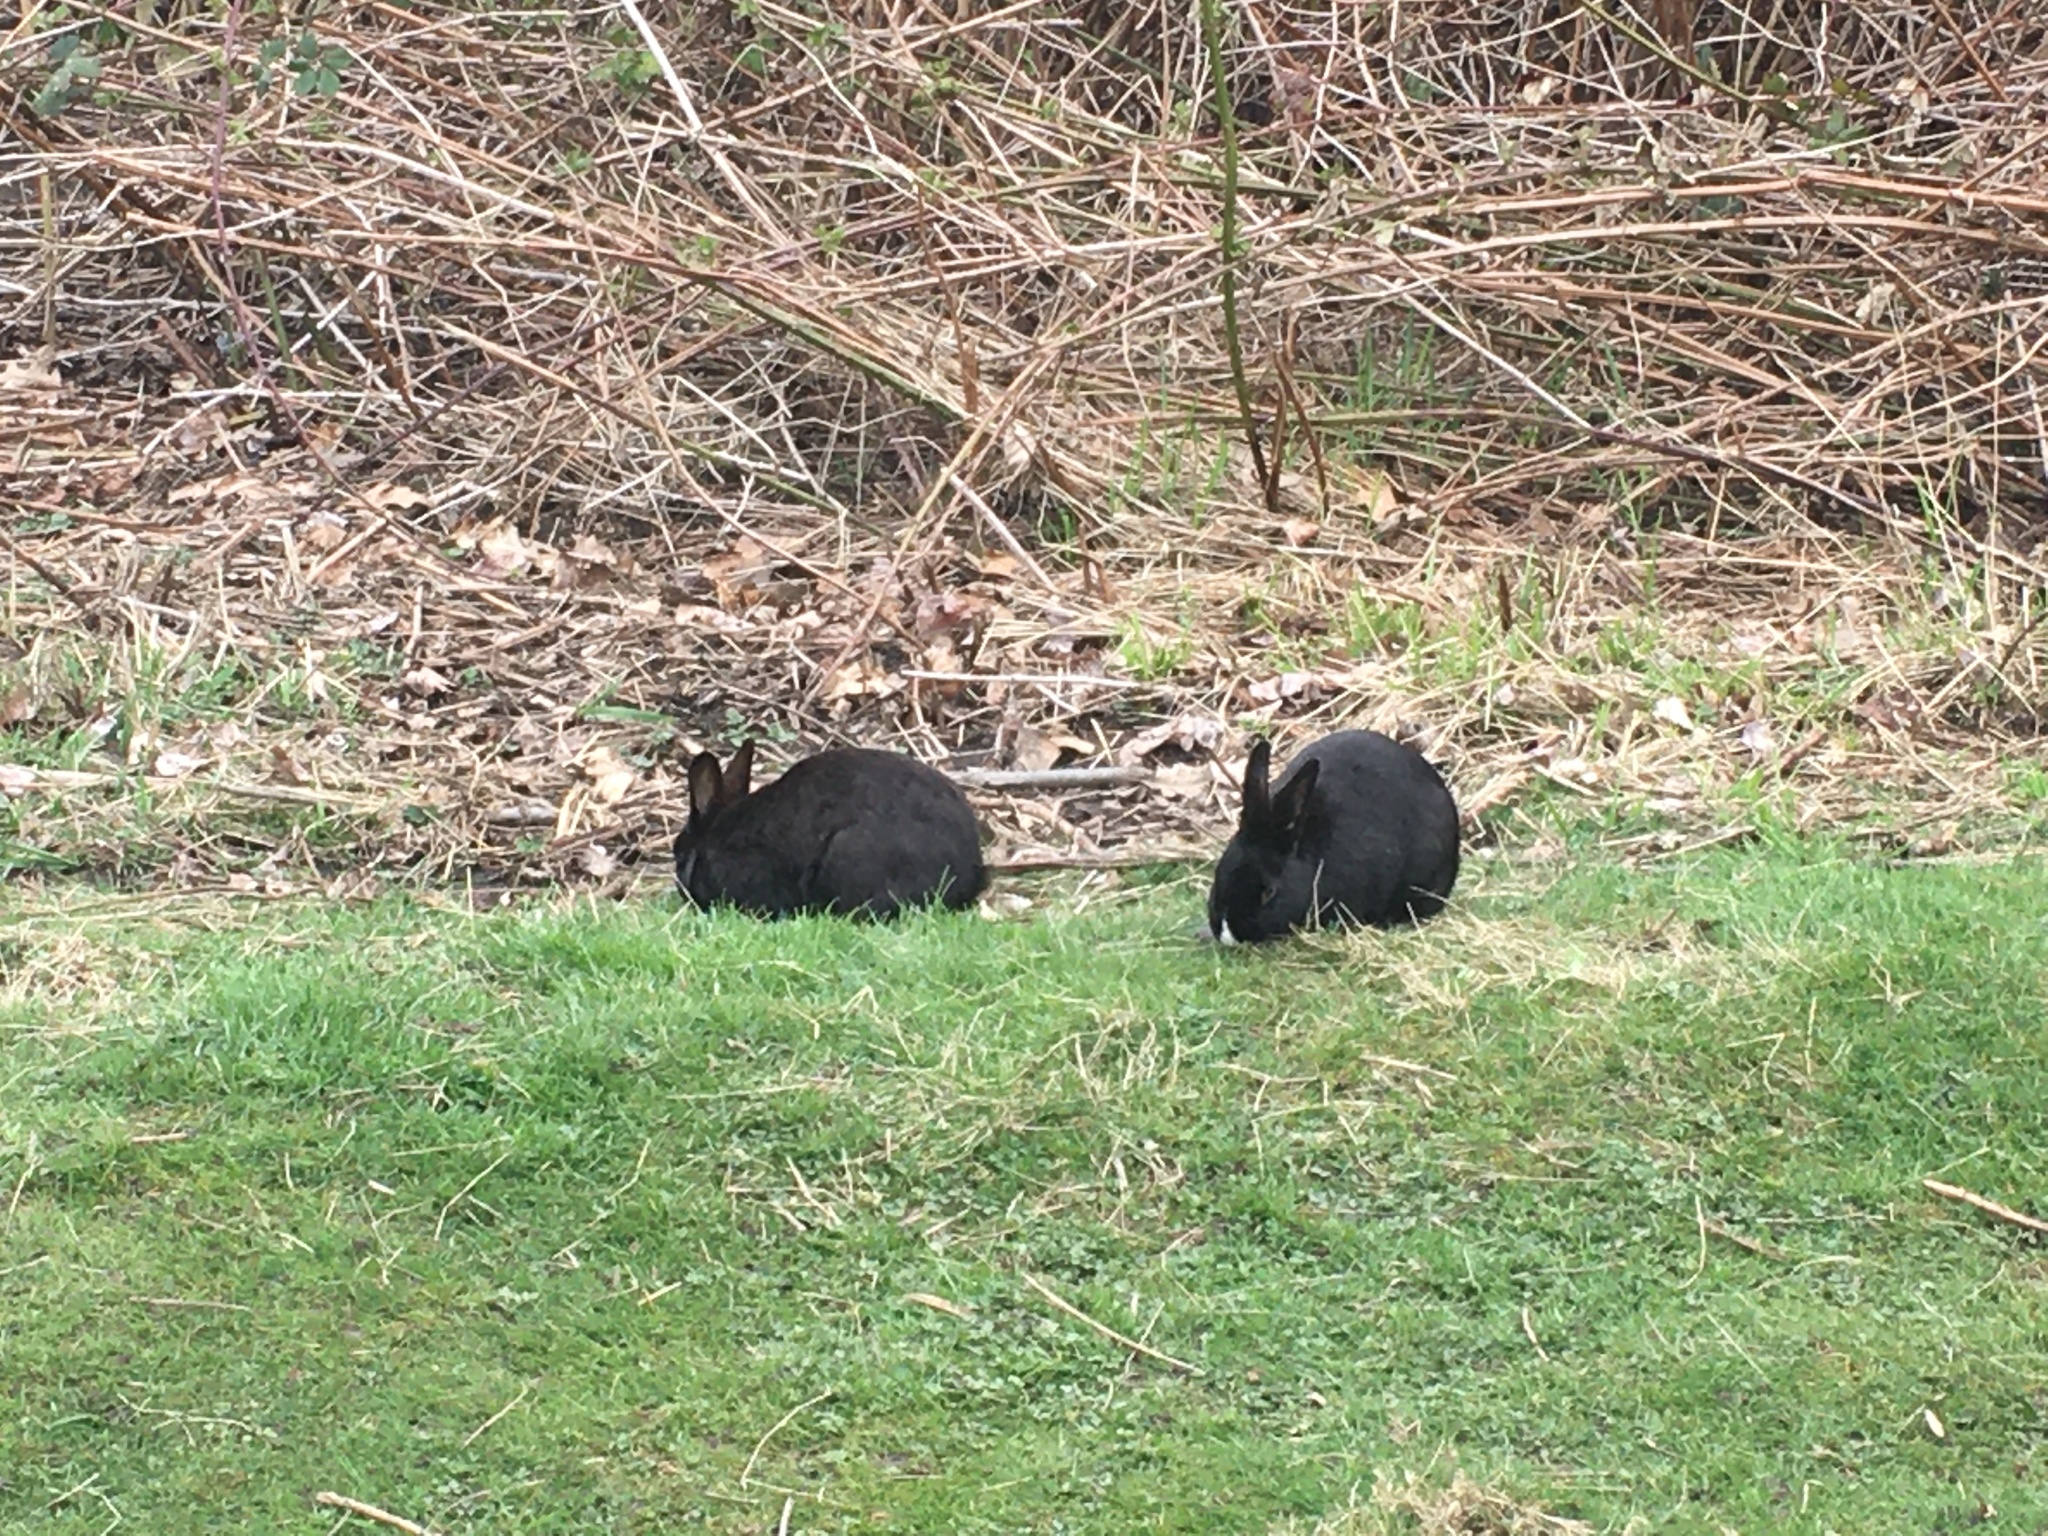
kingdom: Animalia
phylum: Chordata
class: Mammalia
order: Lagomorpha
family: Leporidae
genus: Oryctolagus
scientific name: Oryctolagus cuniculus
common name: European rabbit
